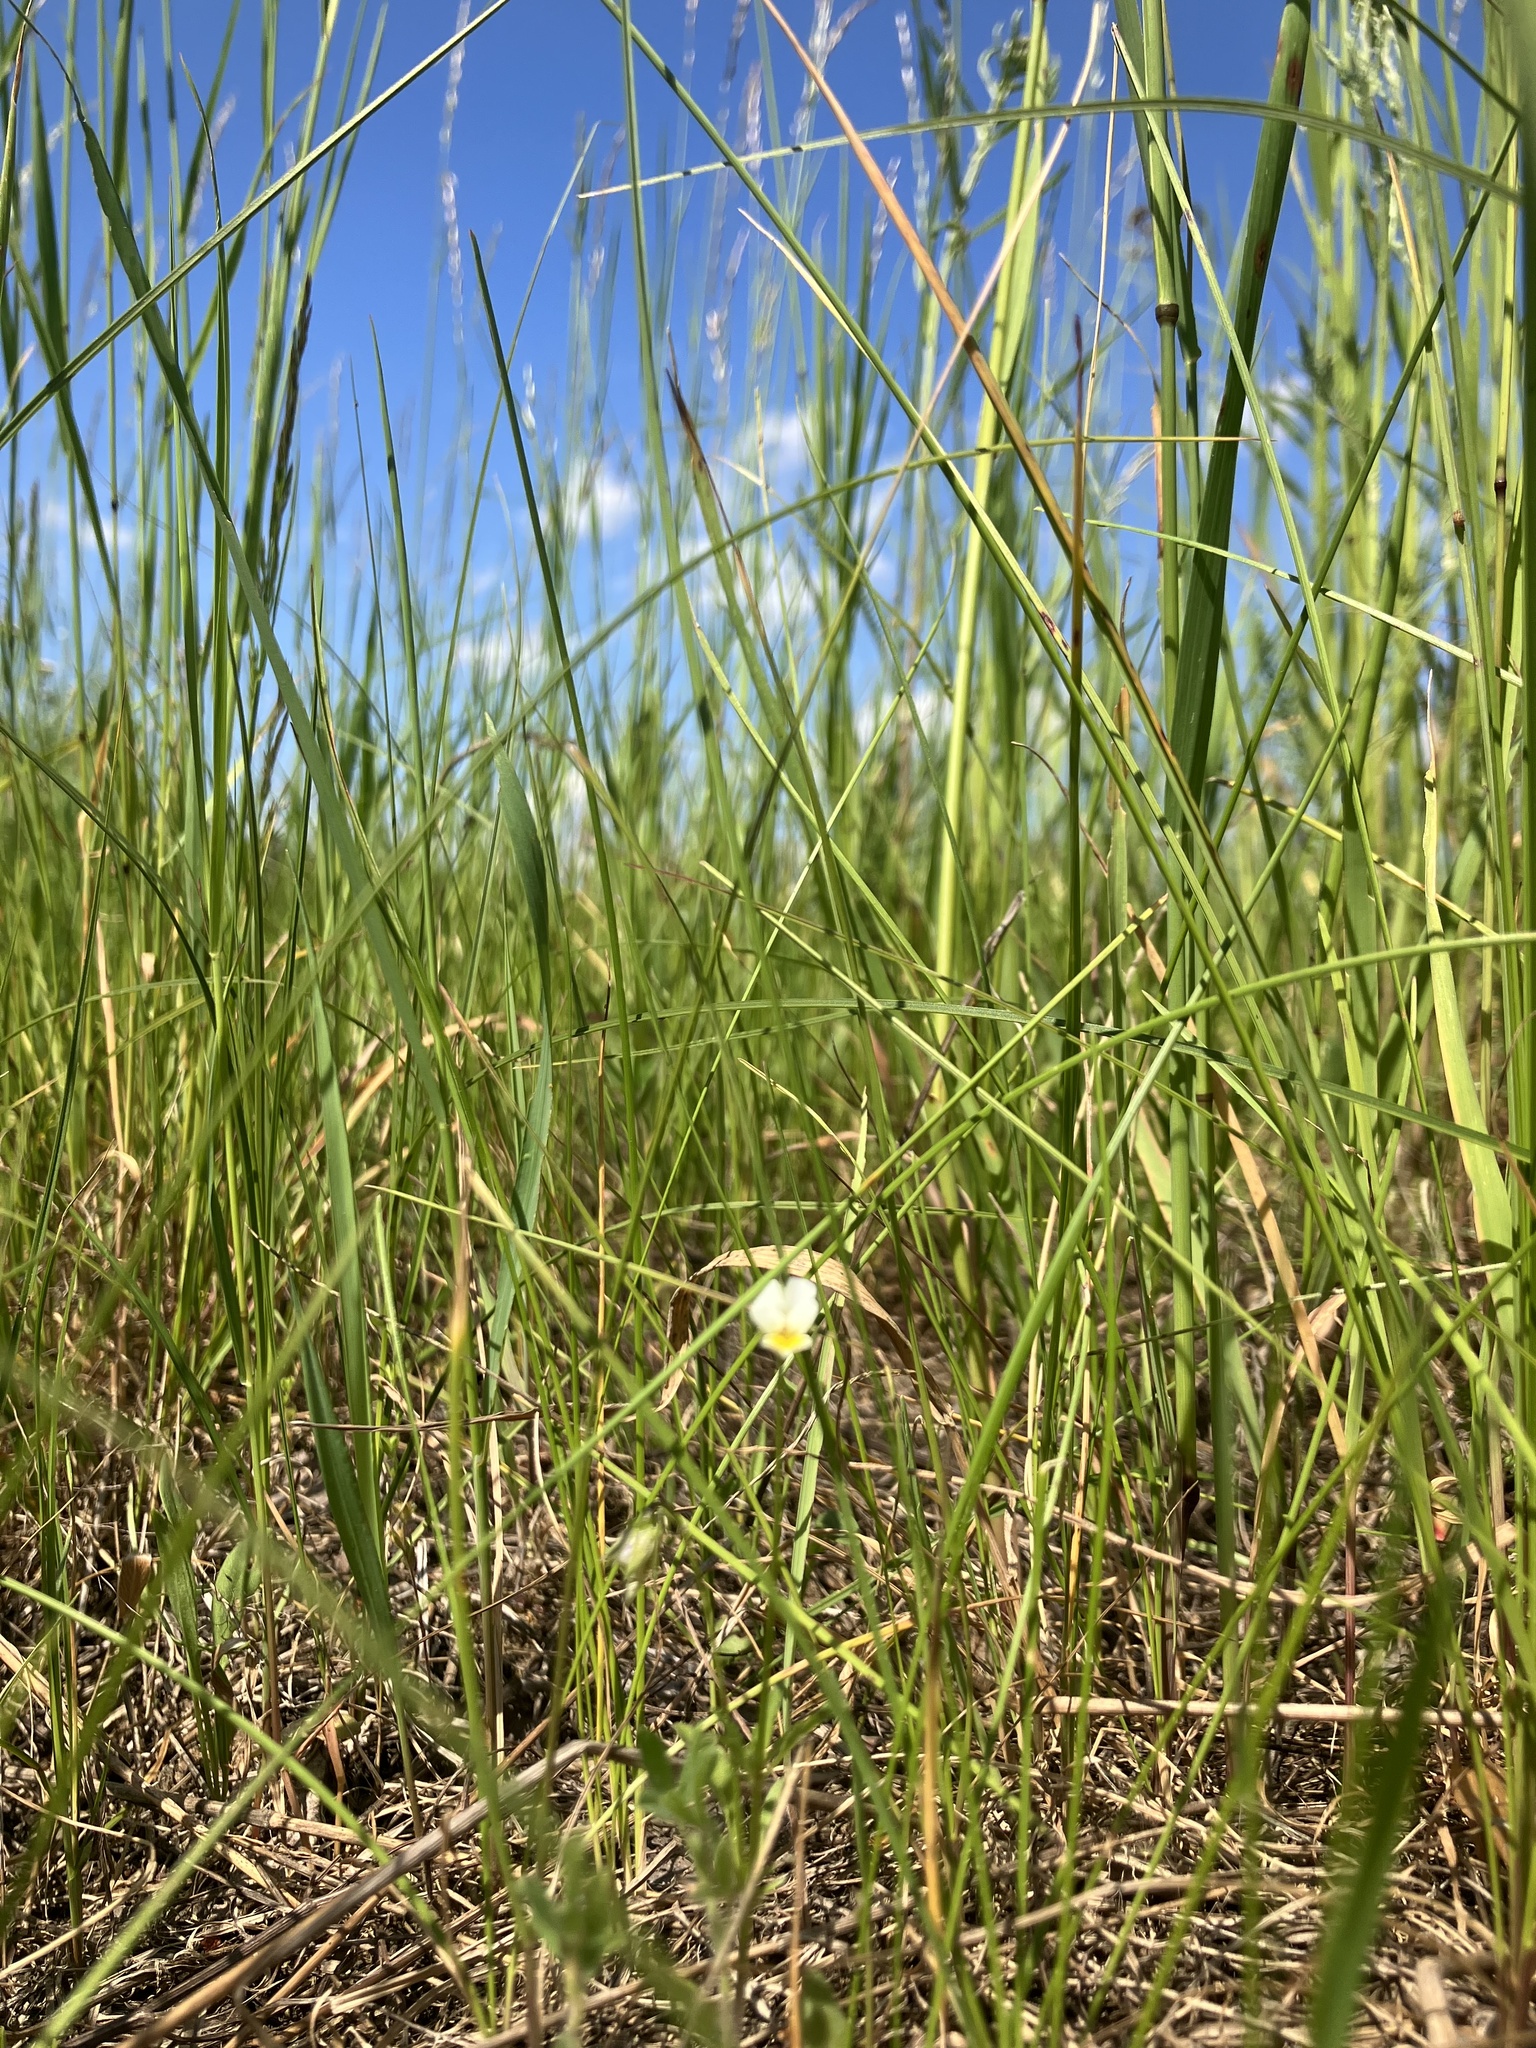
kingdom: Plantae
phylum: Tracheophyta
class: Magnoliopsida
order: Malpighiales
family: Violaceae
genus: Viola
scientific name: Viola arvensis
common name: Field pansy
